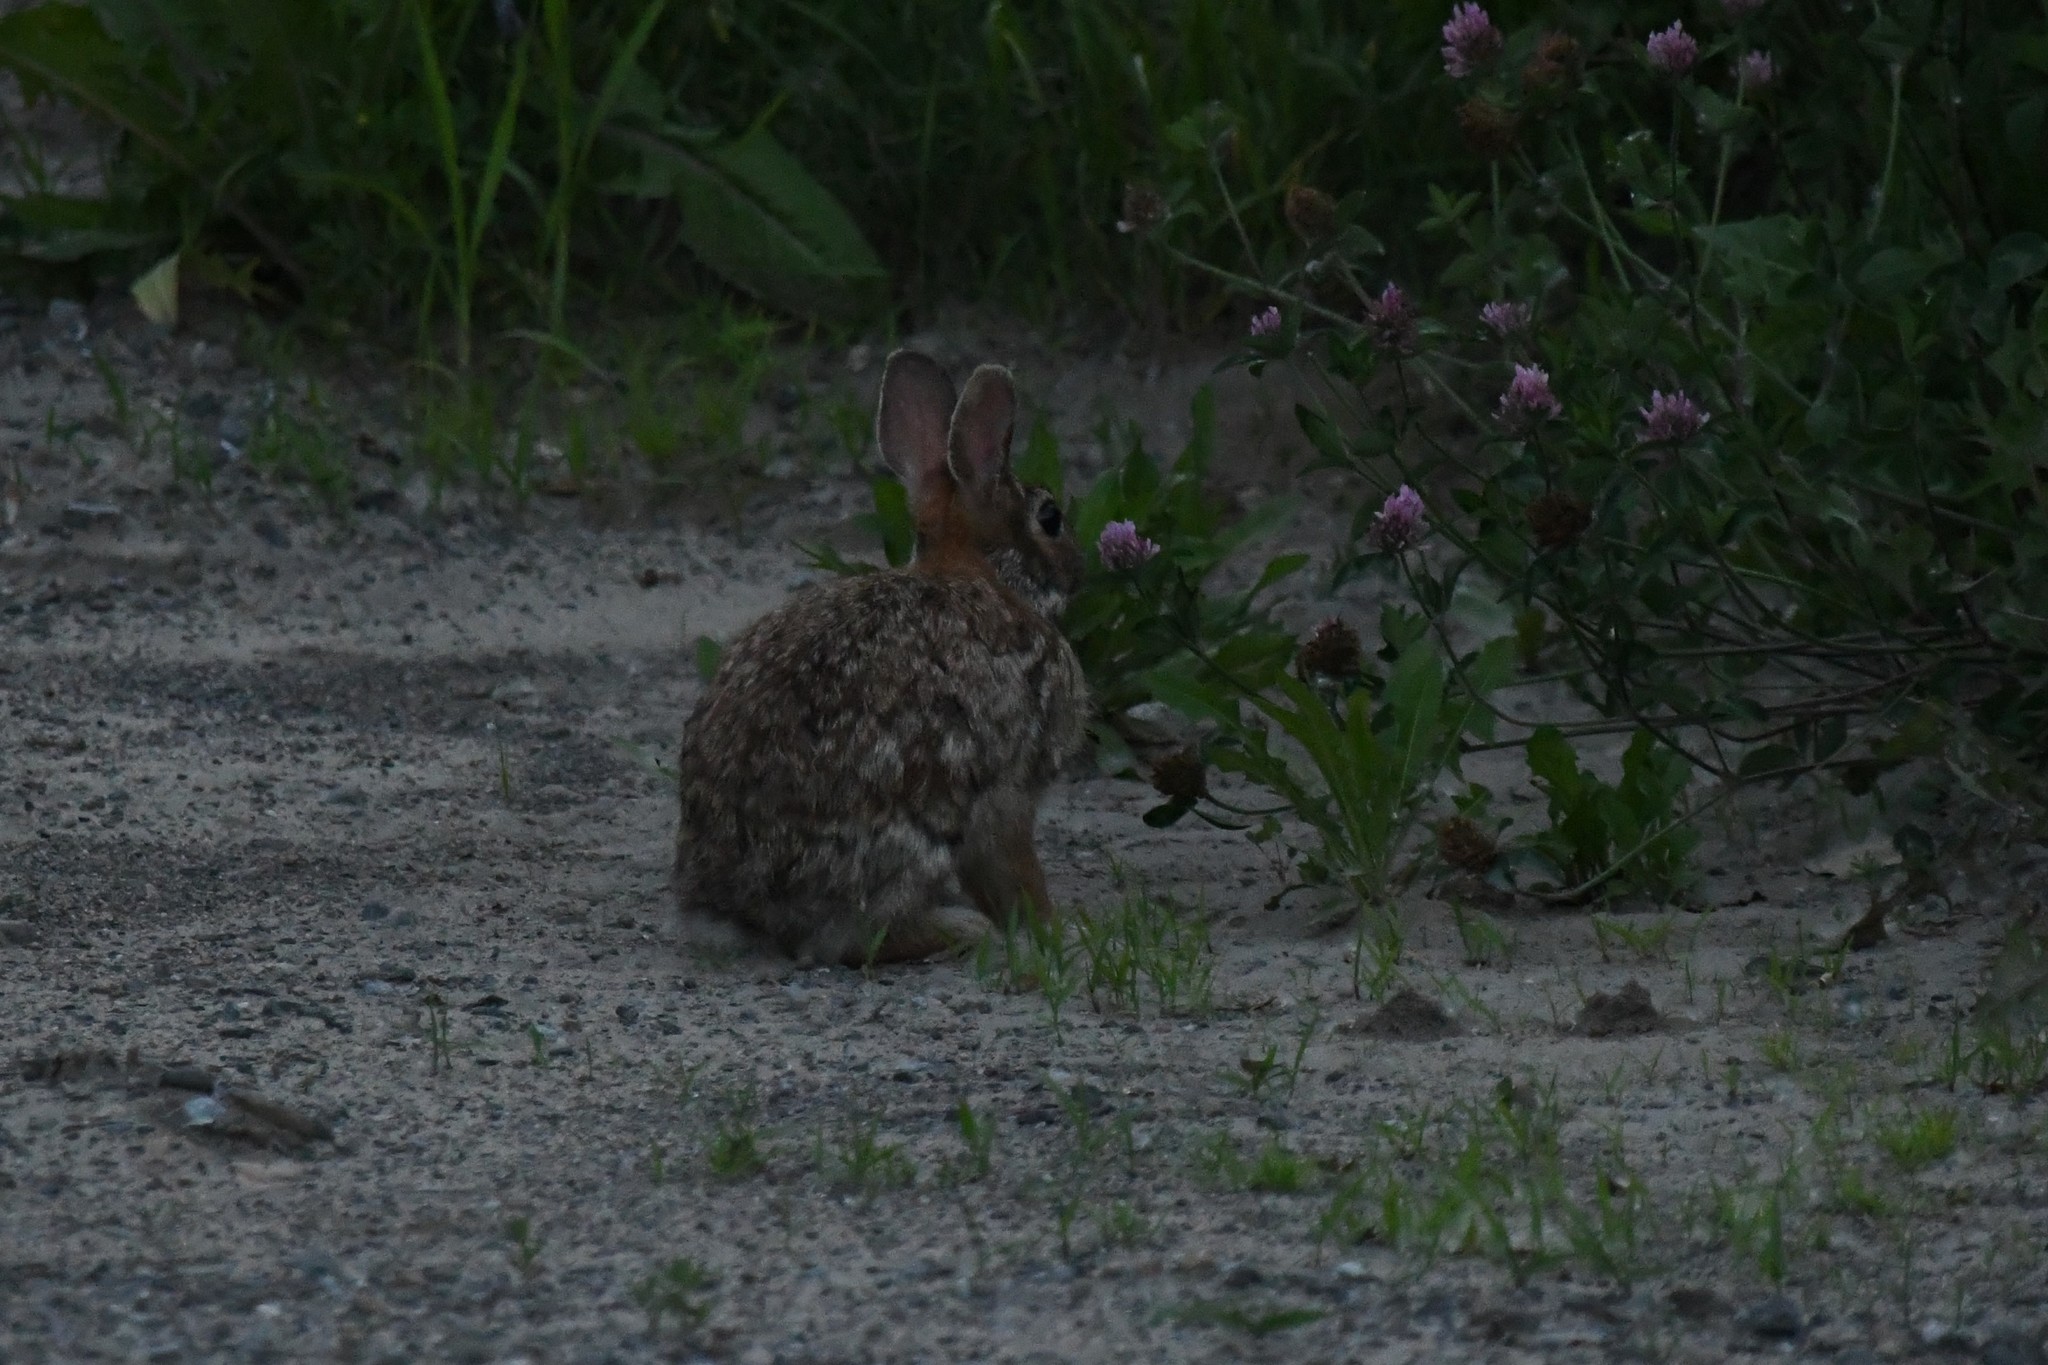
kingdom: Animalia
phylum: Chordata
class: Mammalia
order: Lagomorpha
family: Leporidae
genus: Sylvilagus
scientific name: Sylvilagus floridanus
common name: Eastern cottontail
